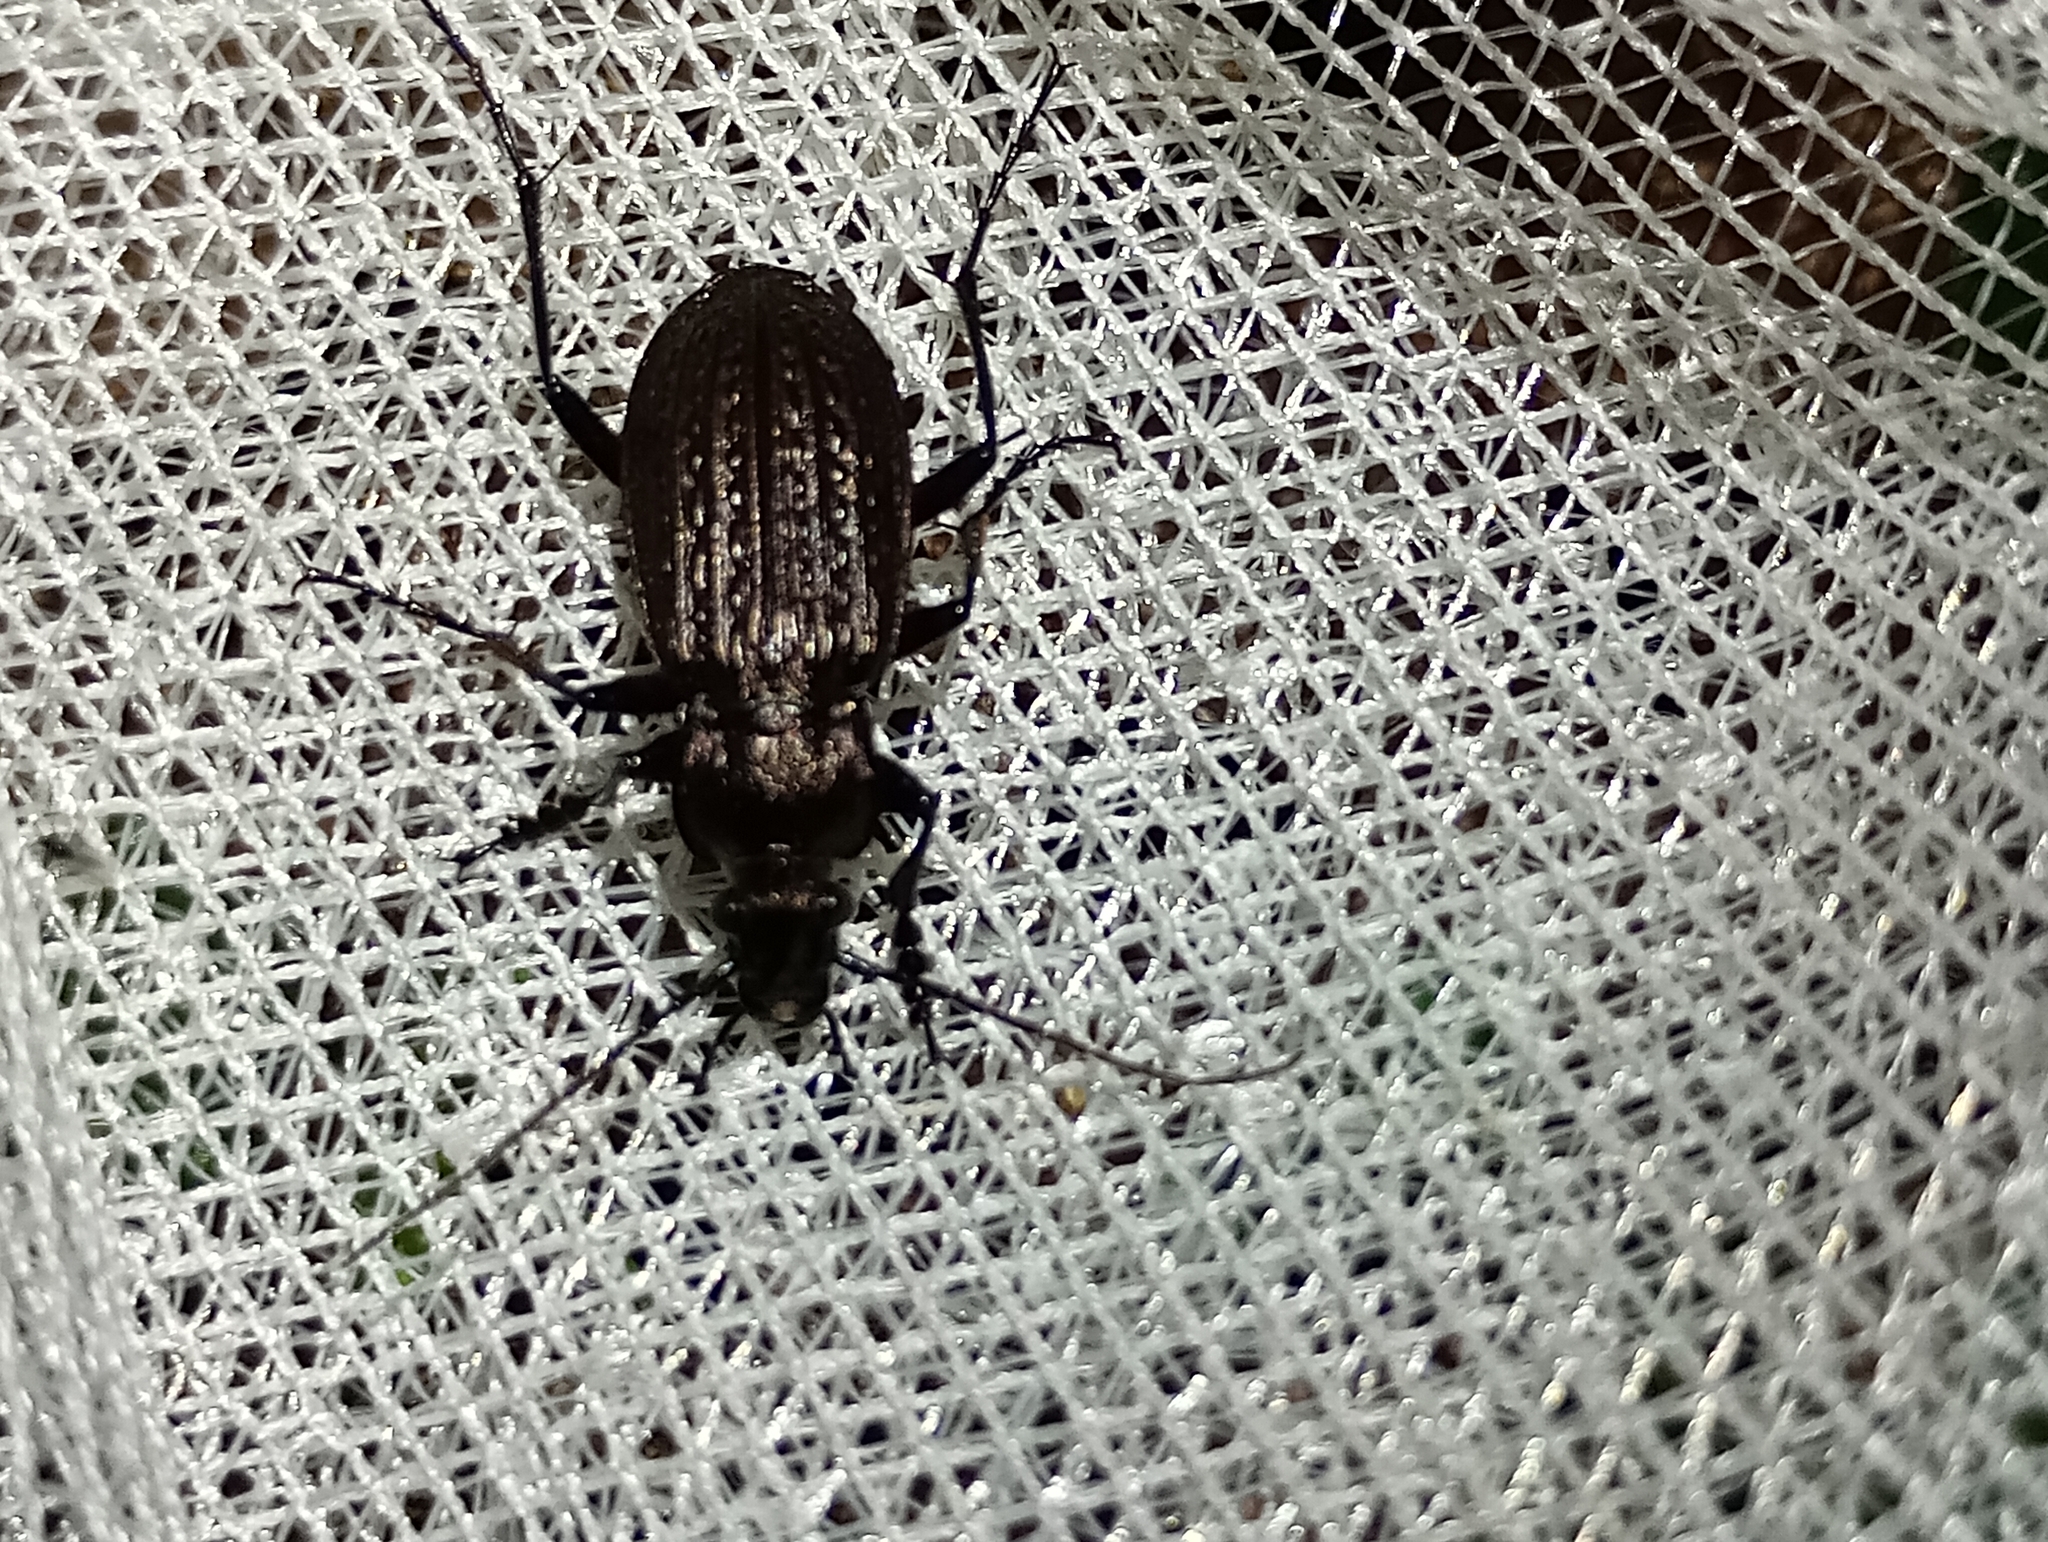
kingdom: Animalia
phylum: Arthropoda
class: Insecta
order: Coleoptera
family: Carabidae
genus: Carabus
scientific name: Carabus granulatus
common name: Granulate ground beetle
